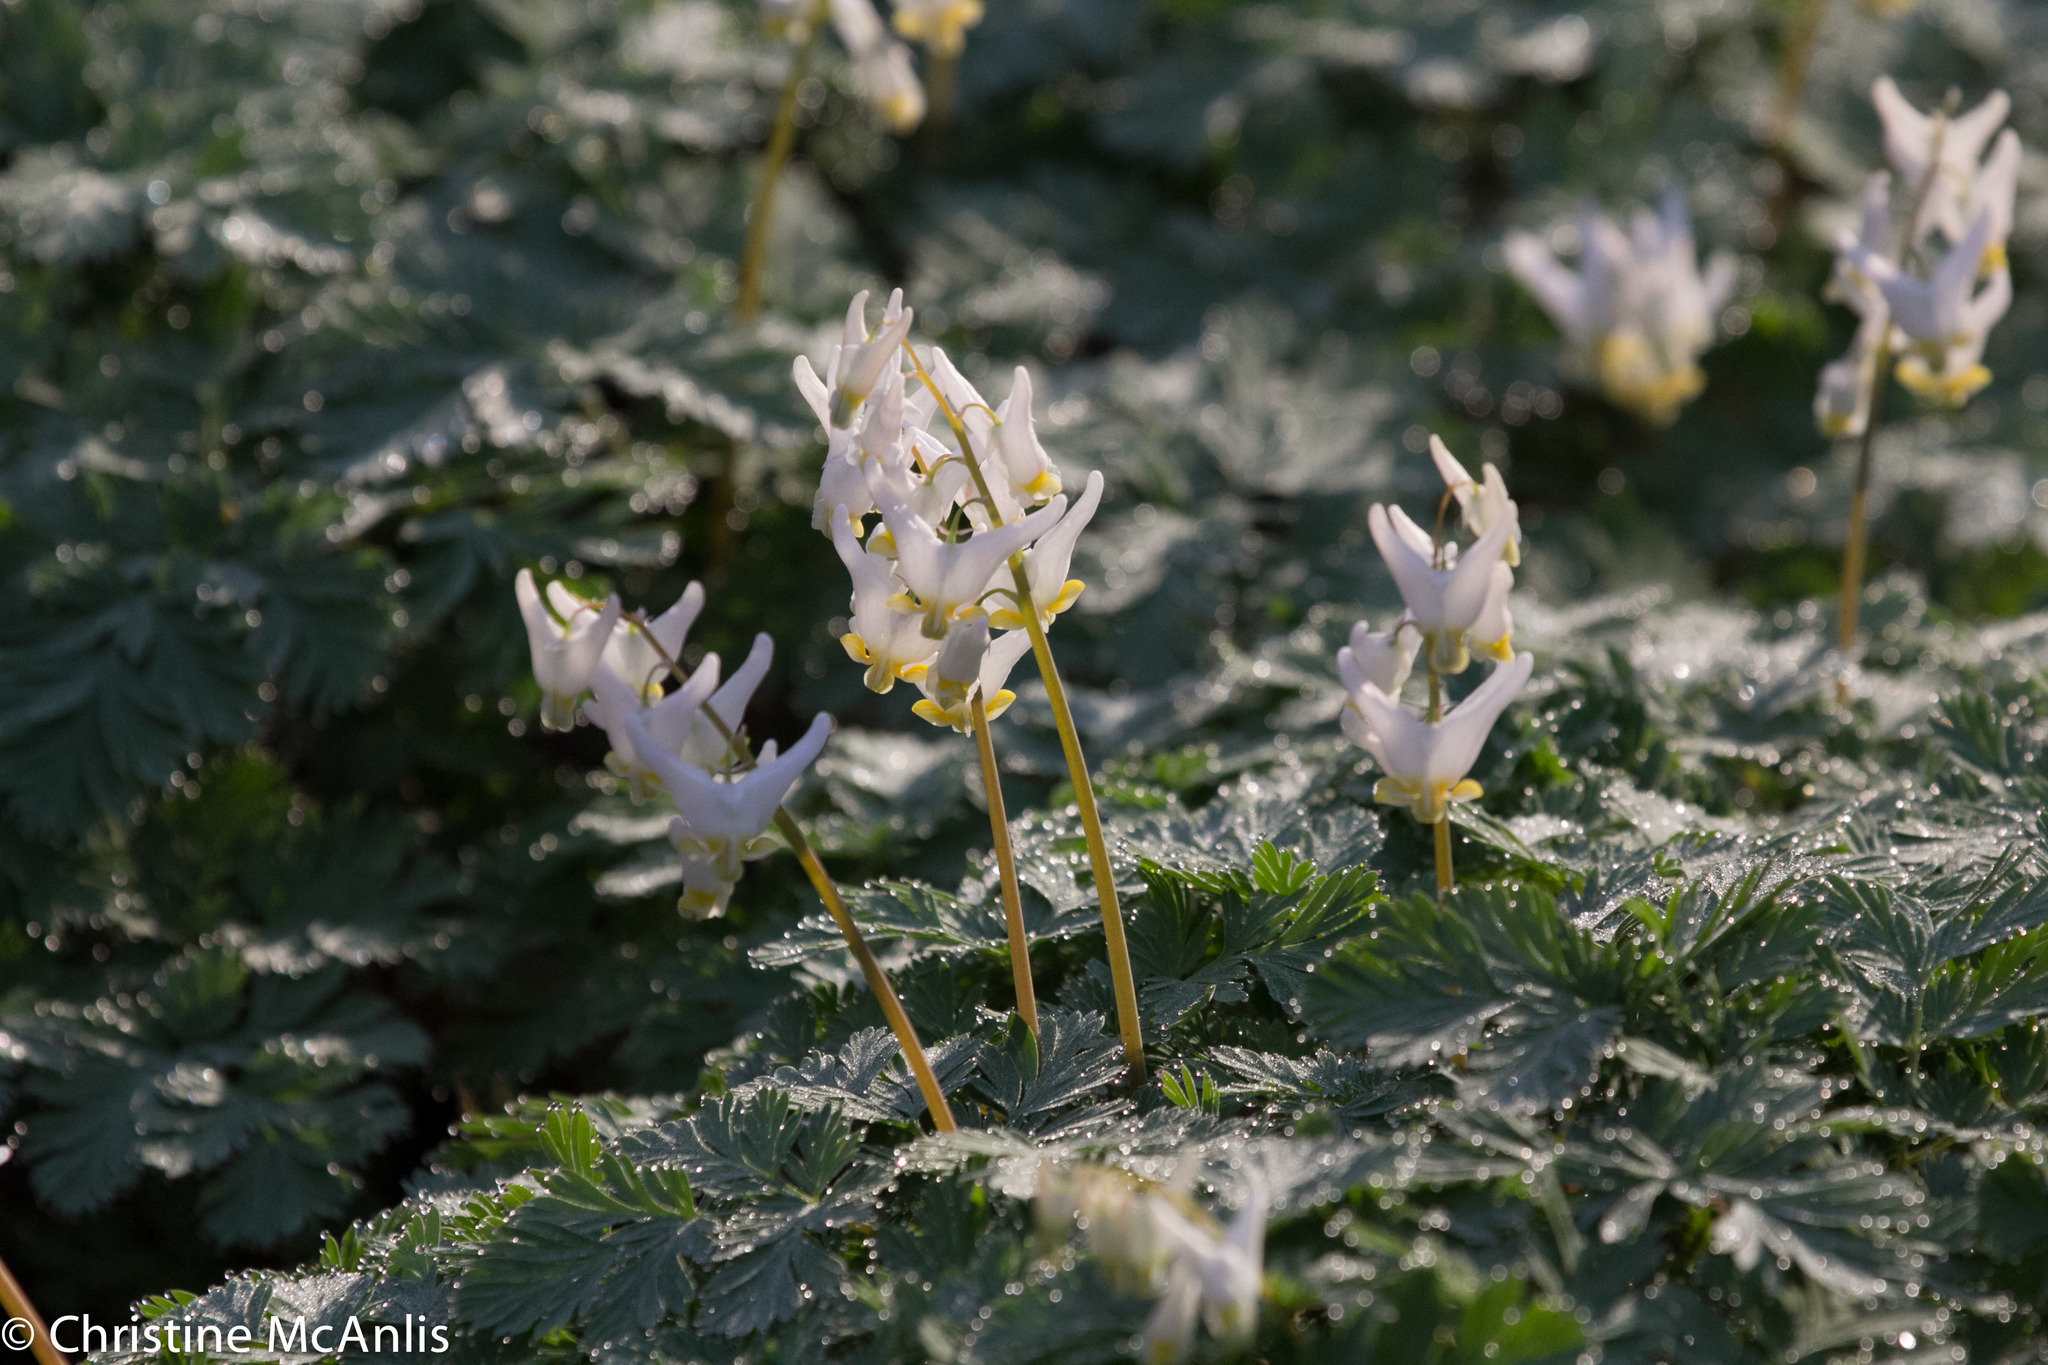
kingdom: Plantae
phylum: Tracheophyta
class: Magnoliopsida
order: Ranunculales
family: Papaveraceae
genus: Dicentra
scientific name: Dicentra cucullaria
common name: Dutchman's breeches
